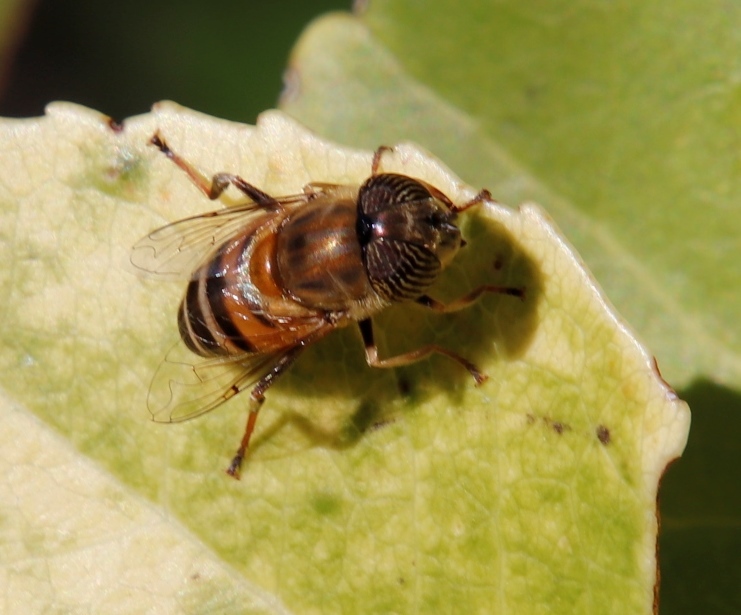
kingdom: Animalia
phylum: Arthropoda
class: Insecta
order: Diptera
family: Syrphidae
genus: Eristalinus
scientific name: Eristalinus taeniops
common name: Syrphid fly
